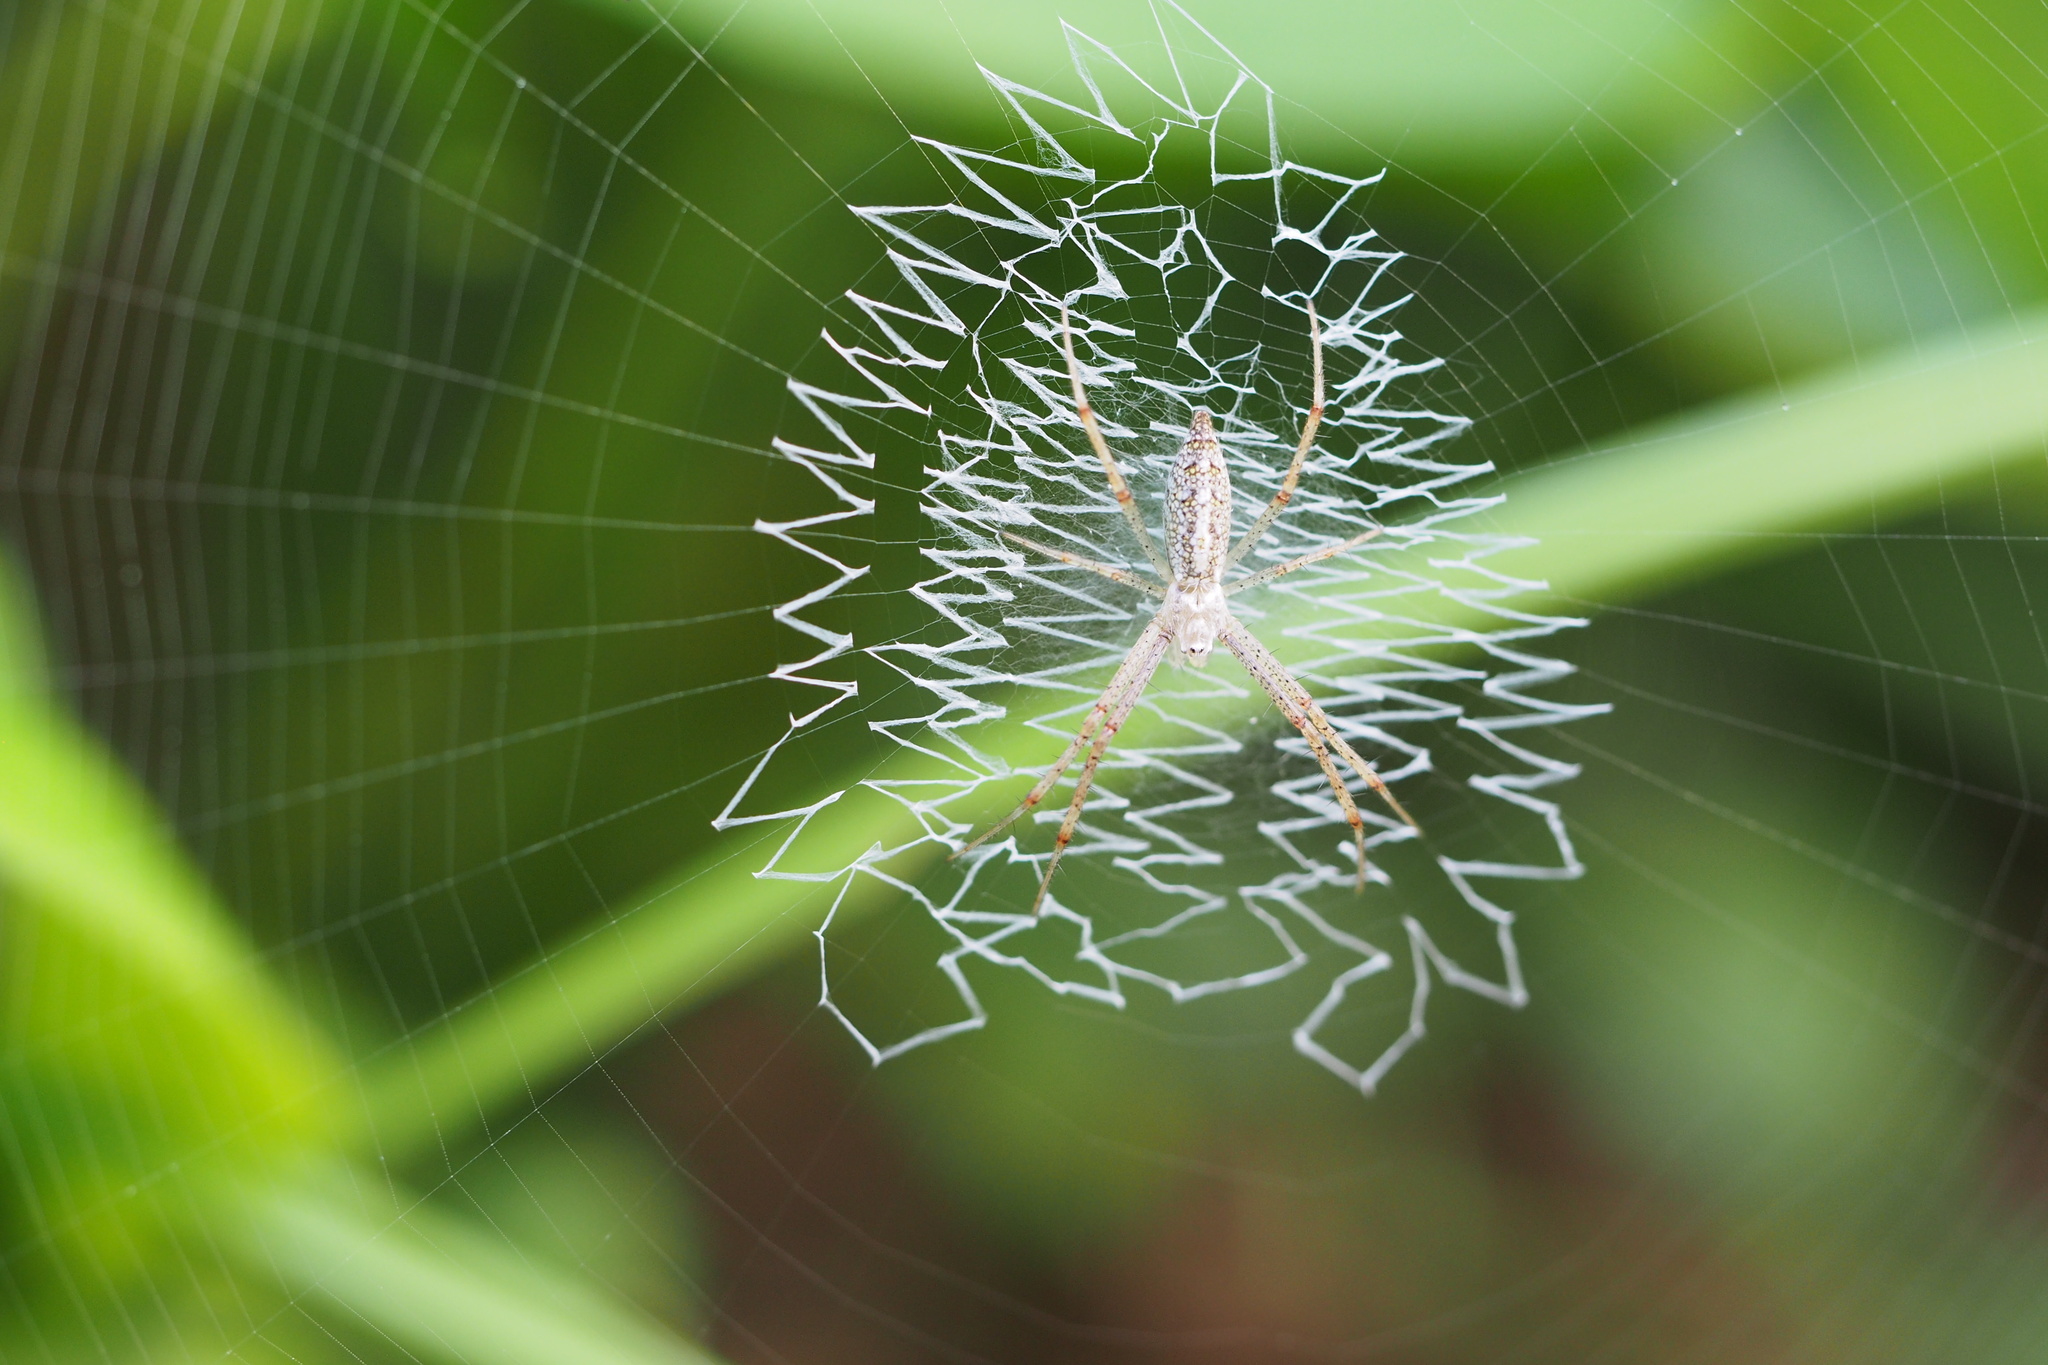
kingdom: Animalia
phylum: Arthropoda
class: Arachnida
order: Araneae
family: Araneidae
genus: Argiope
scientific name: Argiope bruennichi
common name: Wasp spider
